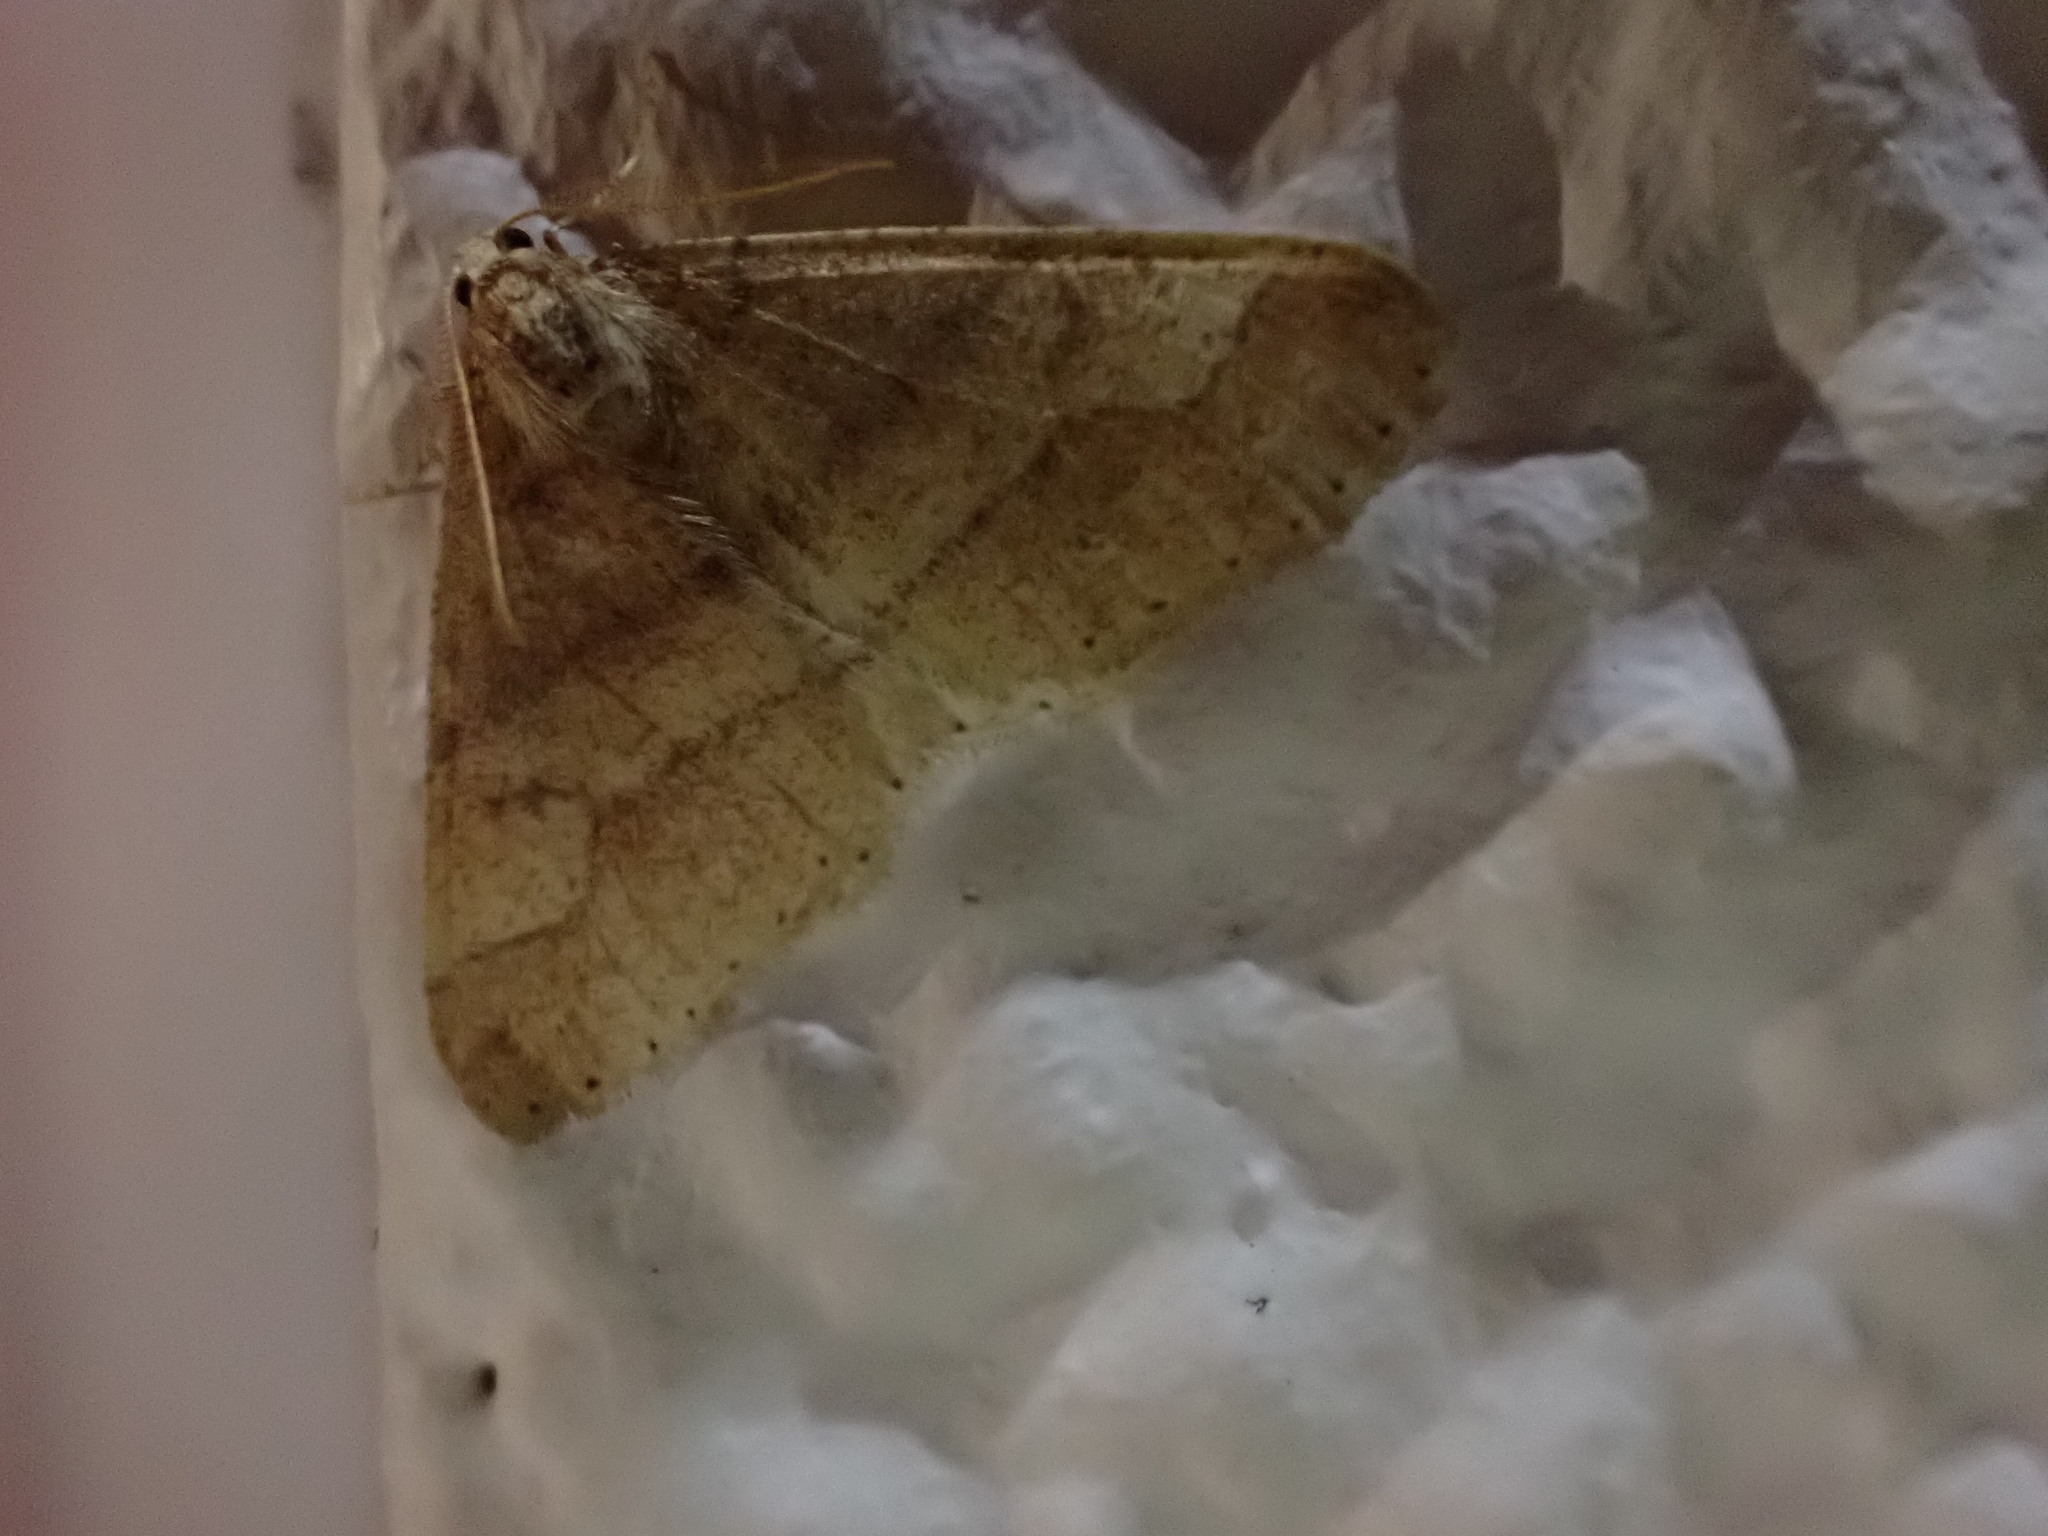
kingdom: Animalia
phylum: Arthropoda
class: Insecta
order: Lepidoptera
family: Geometridae
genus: Agriopis
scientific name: Agriopis marginaria
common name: Dotted border
